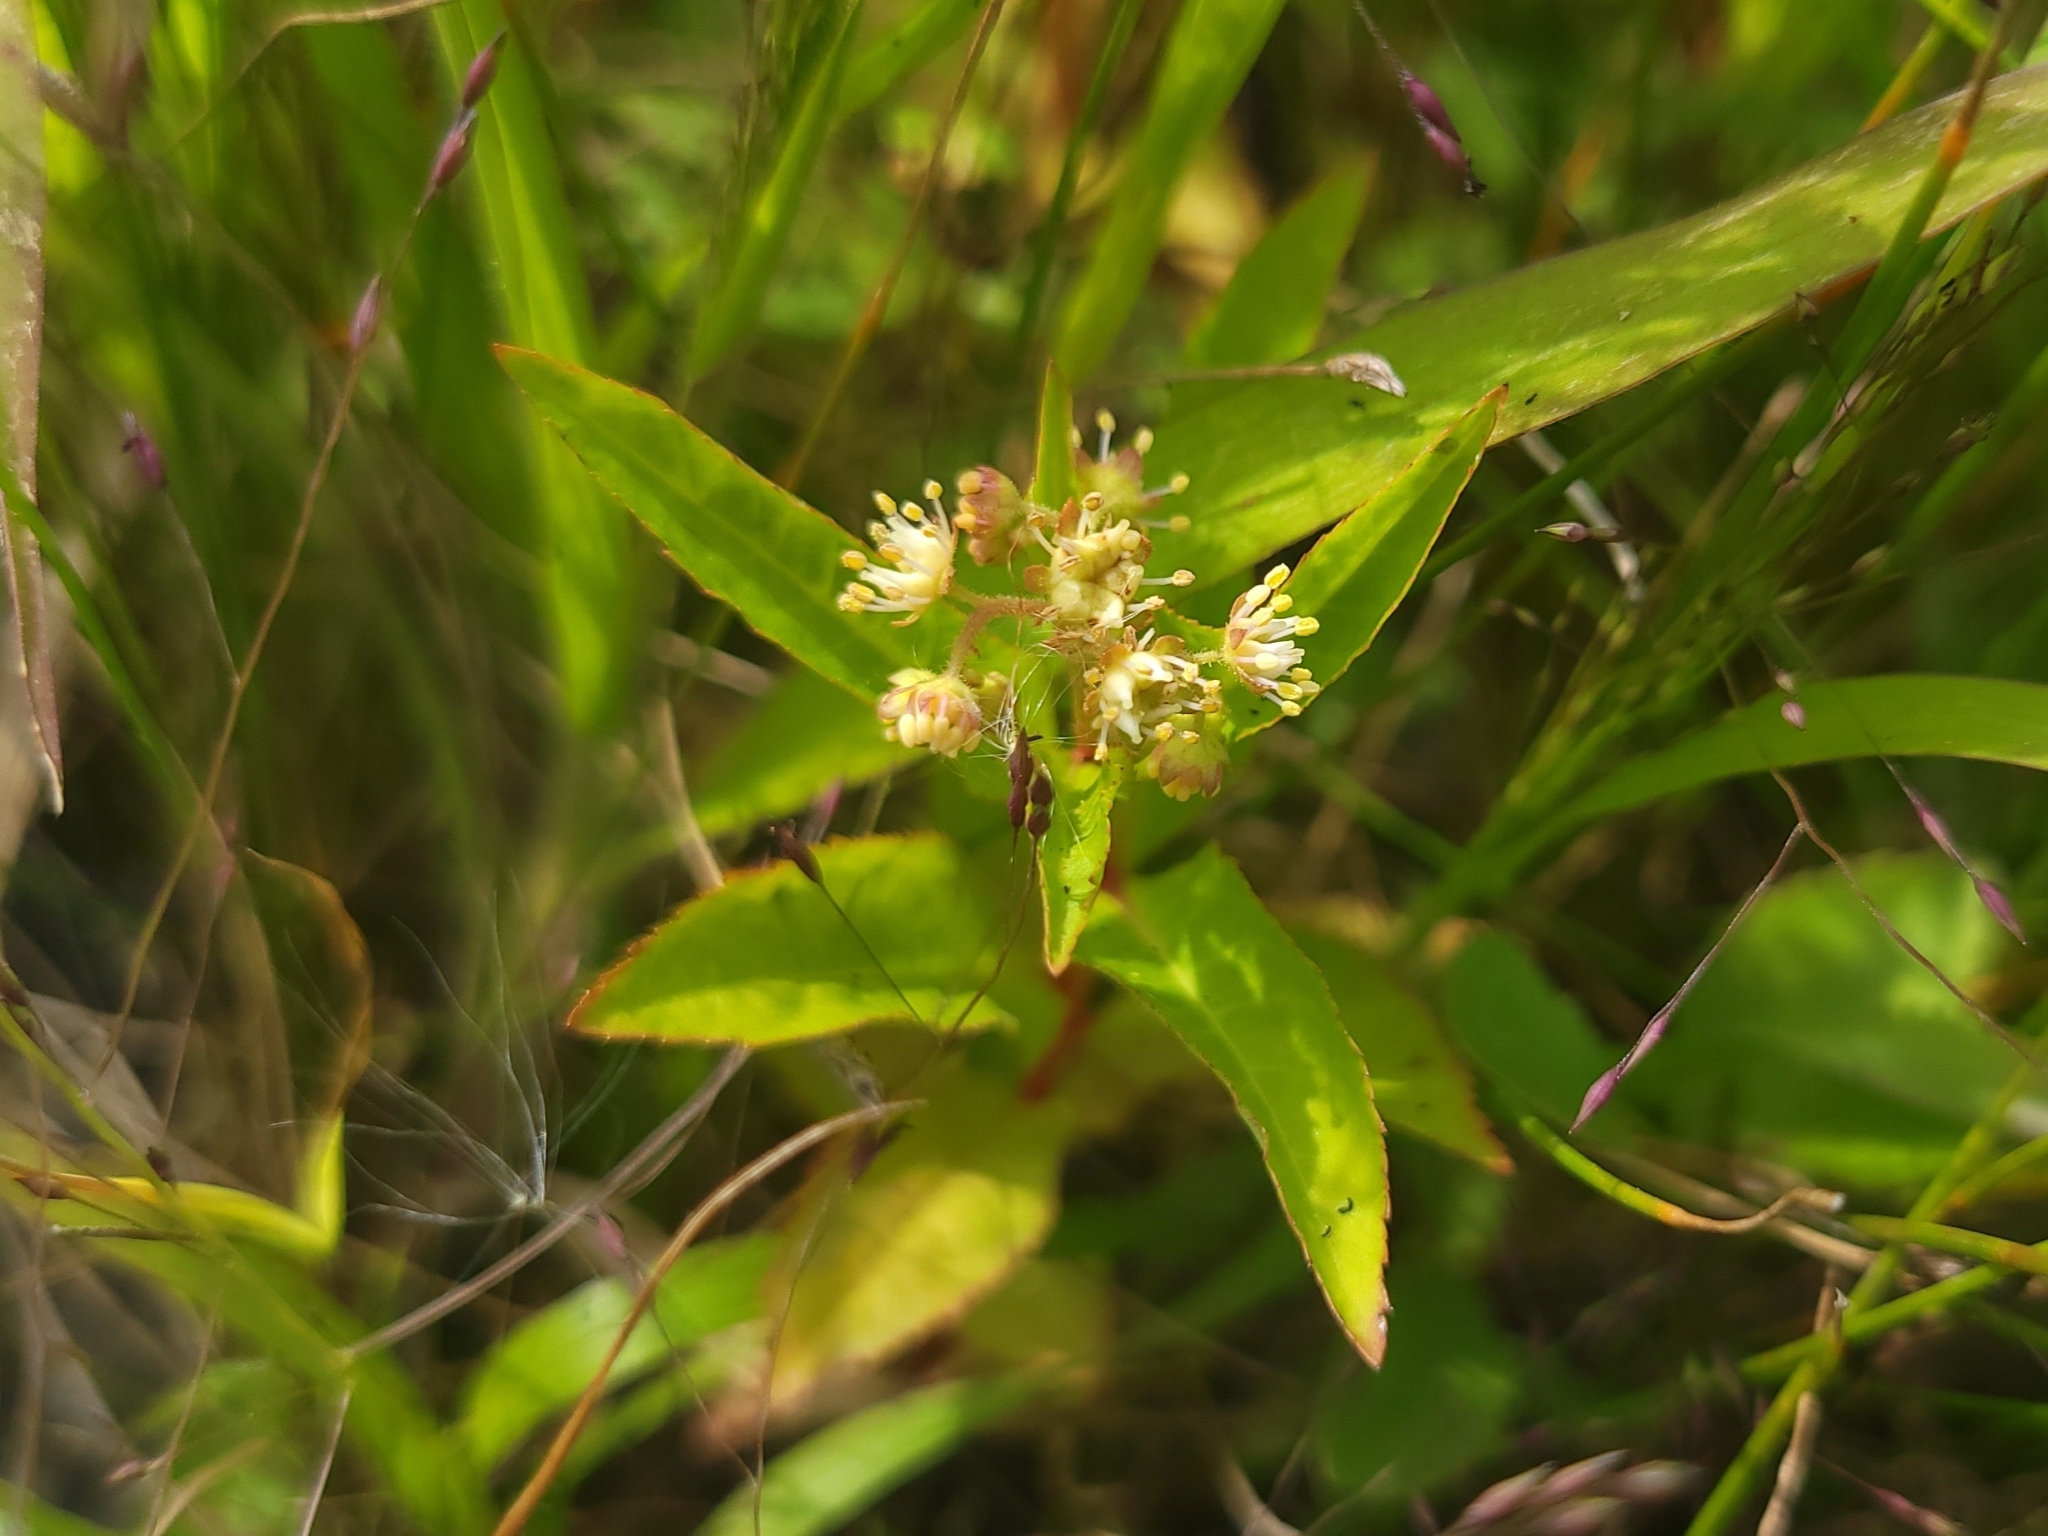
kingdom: Plantae
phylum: Tracheophyta
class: Magnoliopsida
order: Saxifragales
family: Penthoraceae
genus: Penthorum
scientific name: Penthorum sedoides
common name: Ditch stonecrop
